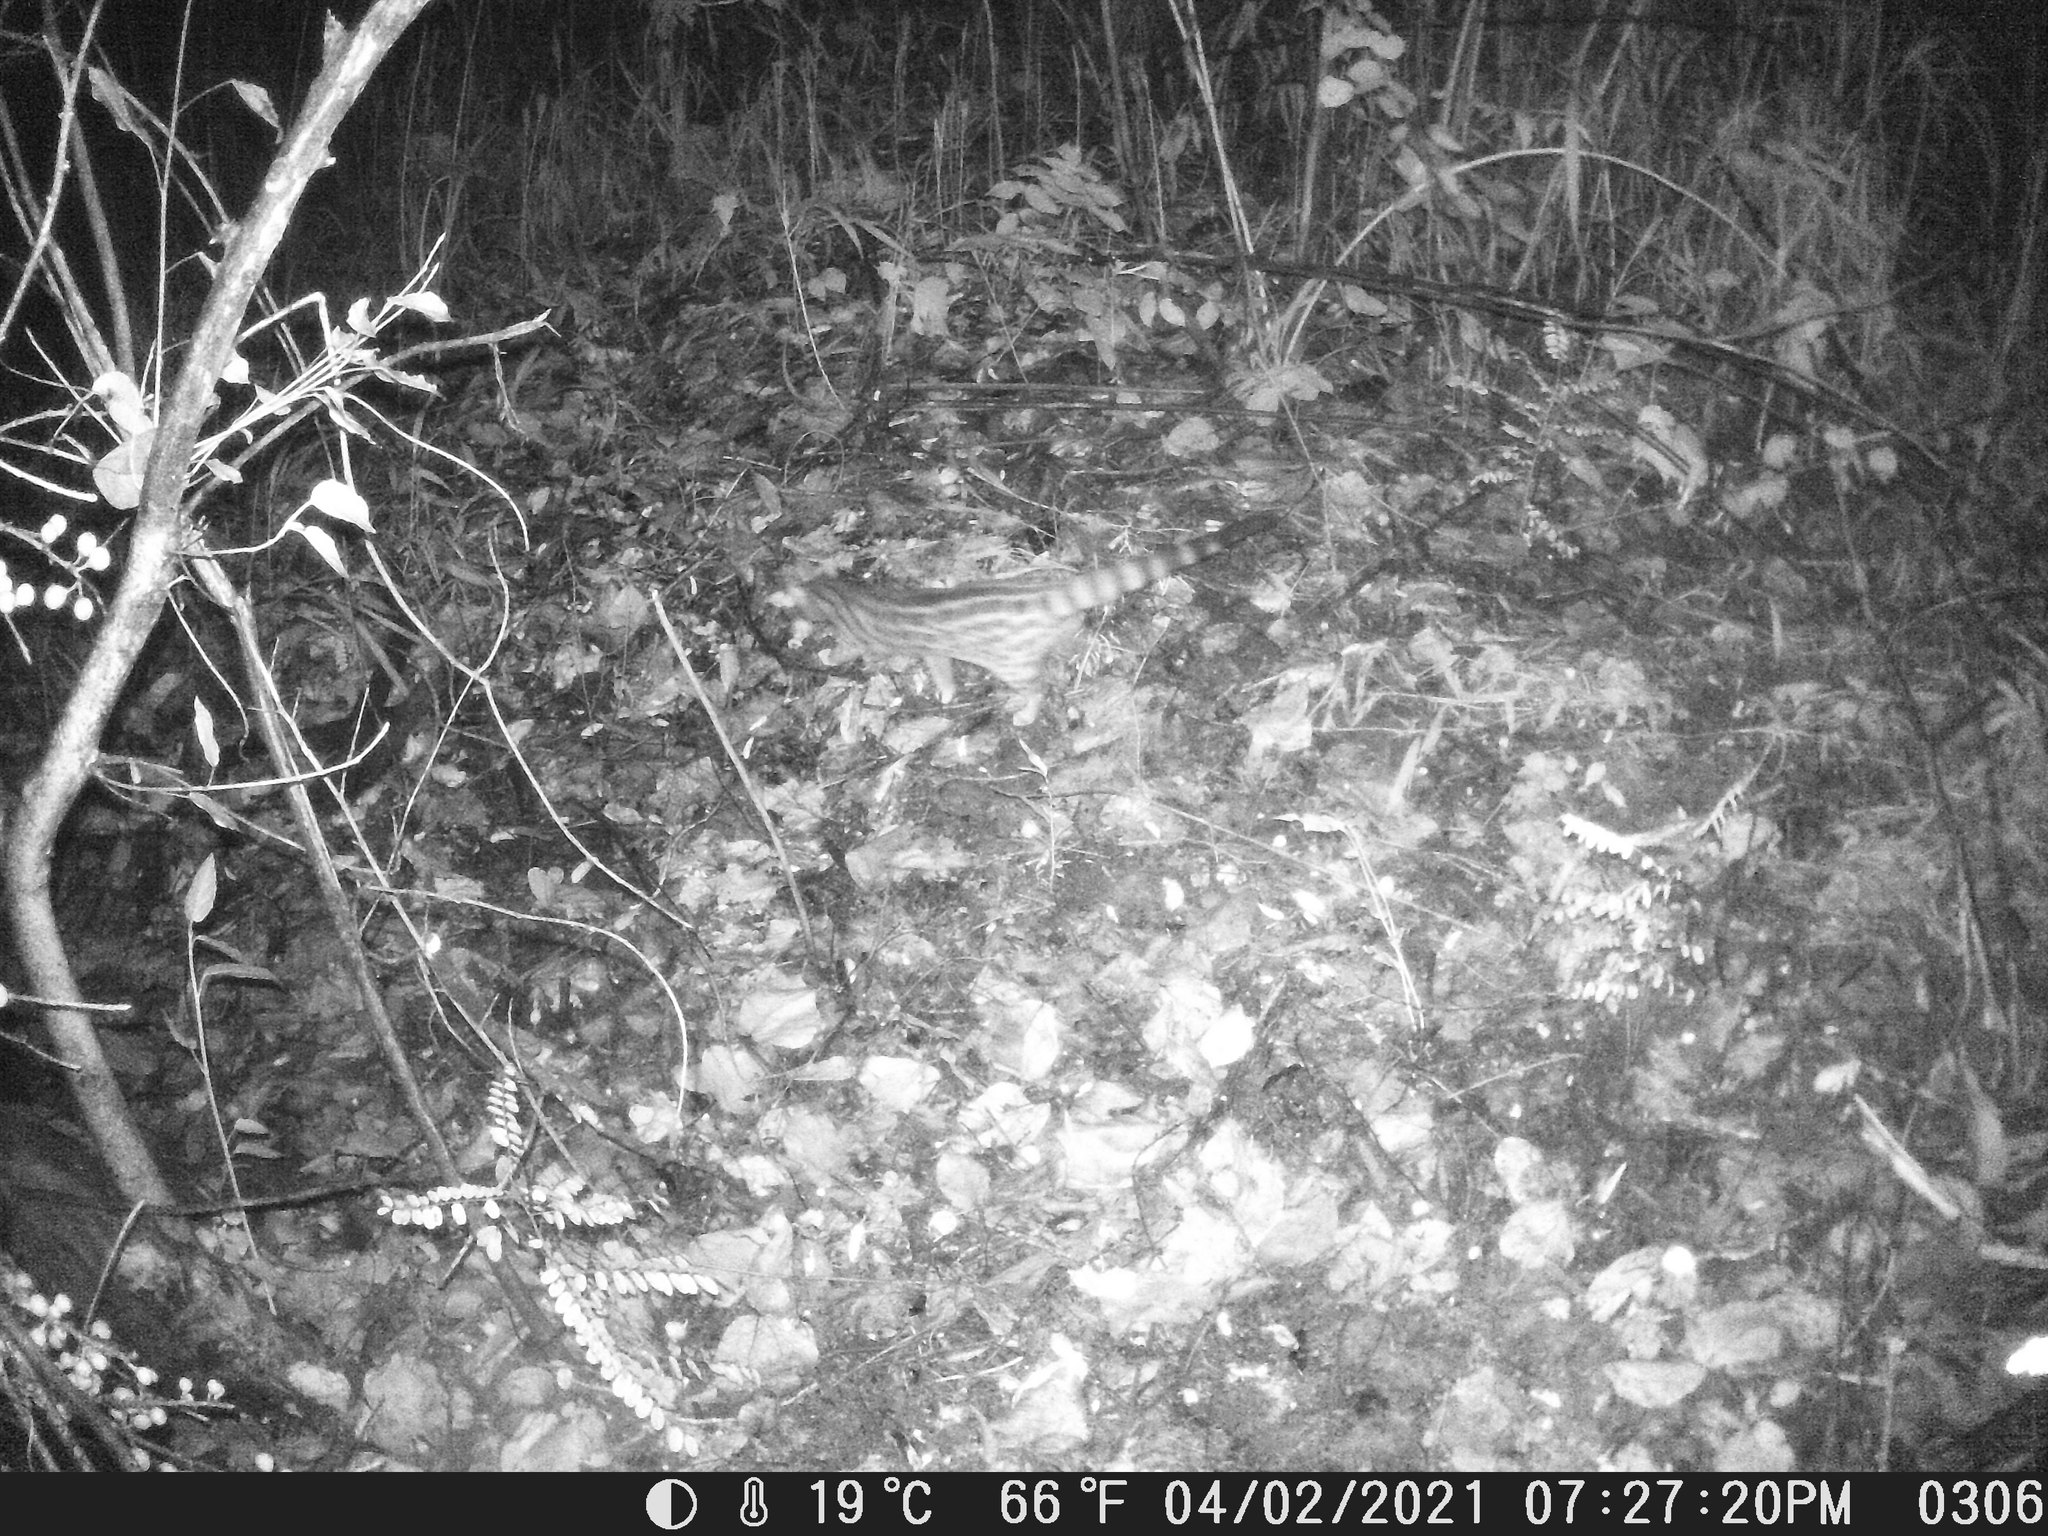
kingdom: Animalia
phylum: Chordata
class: Mammalia
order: Carnivora
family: Viverridae
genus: Genetta
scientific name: Genetta maculata
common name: Rusty-spotted genet
